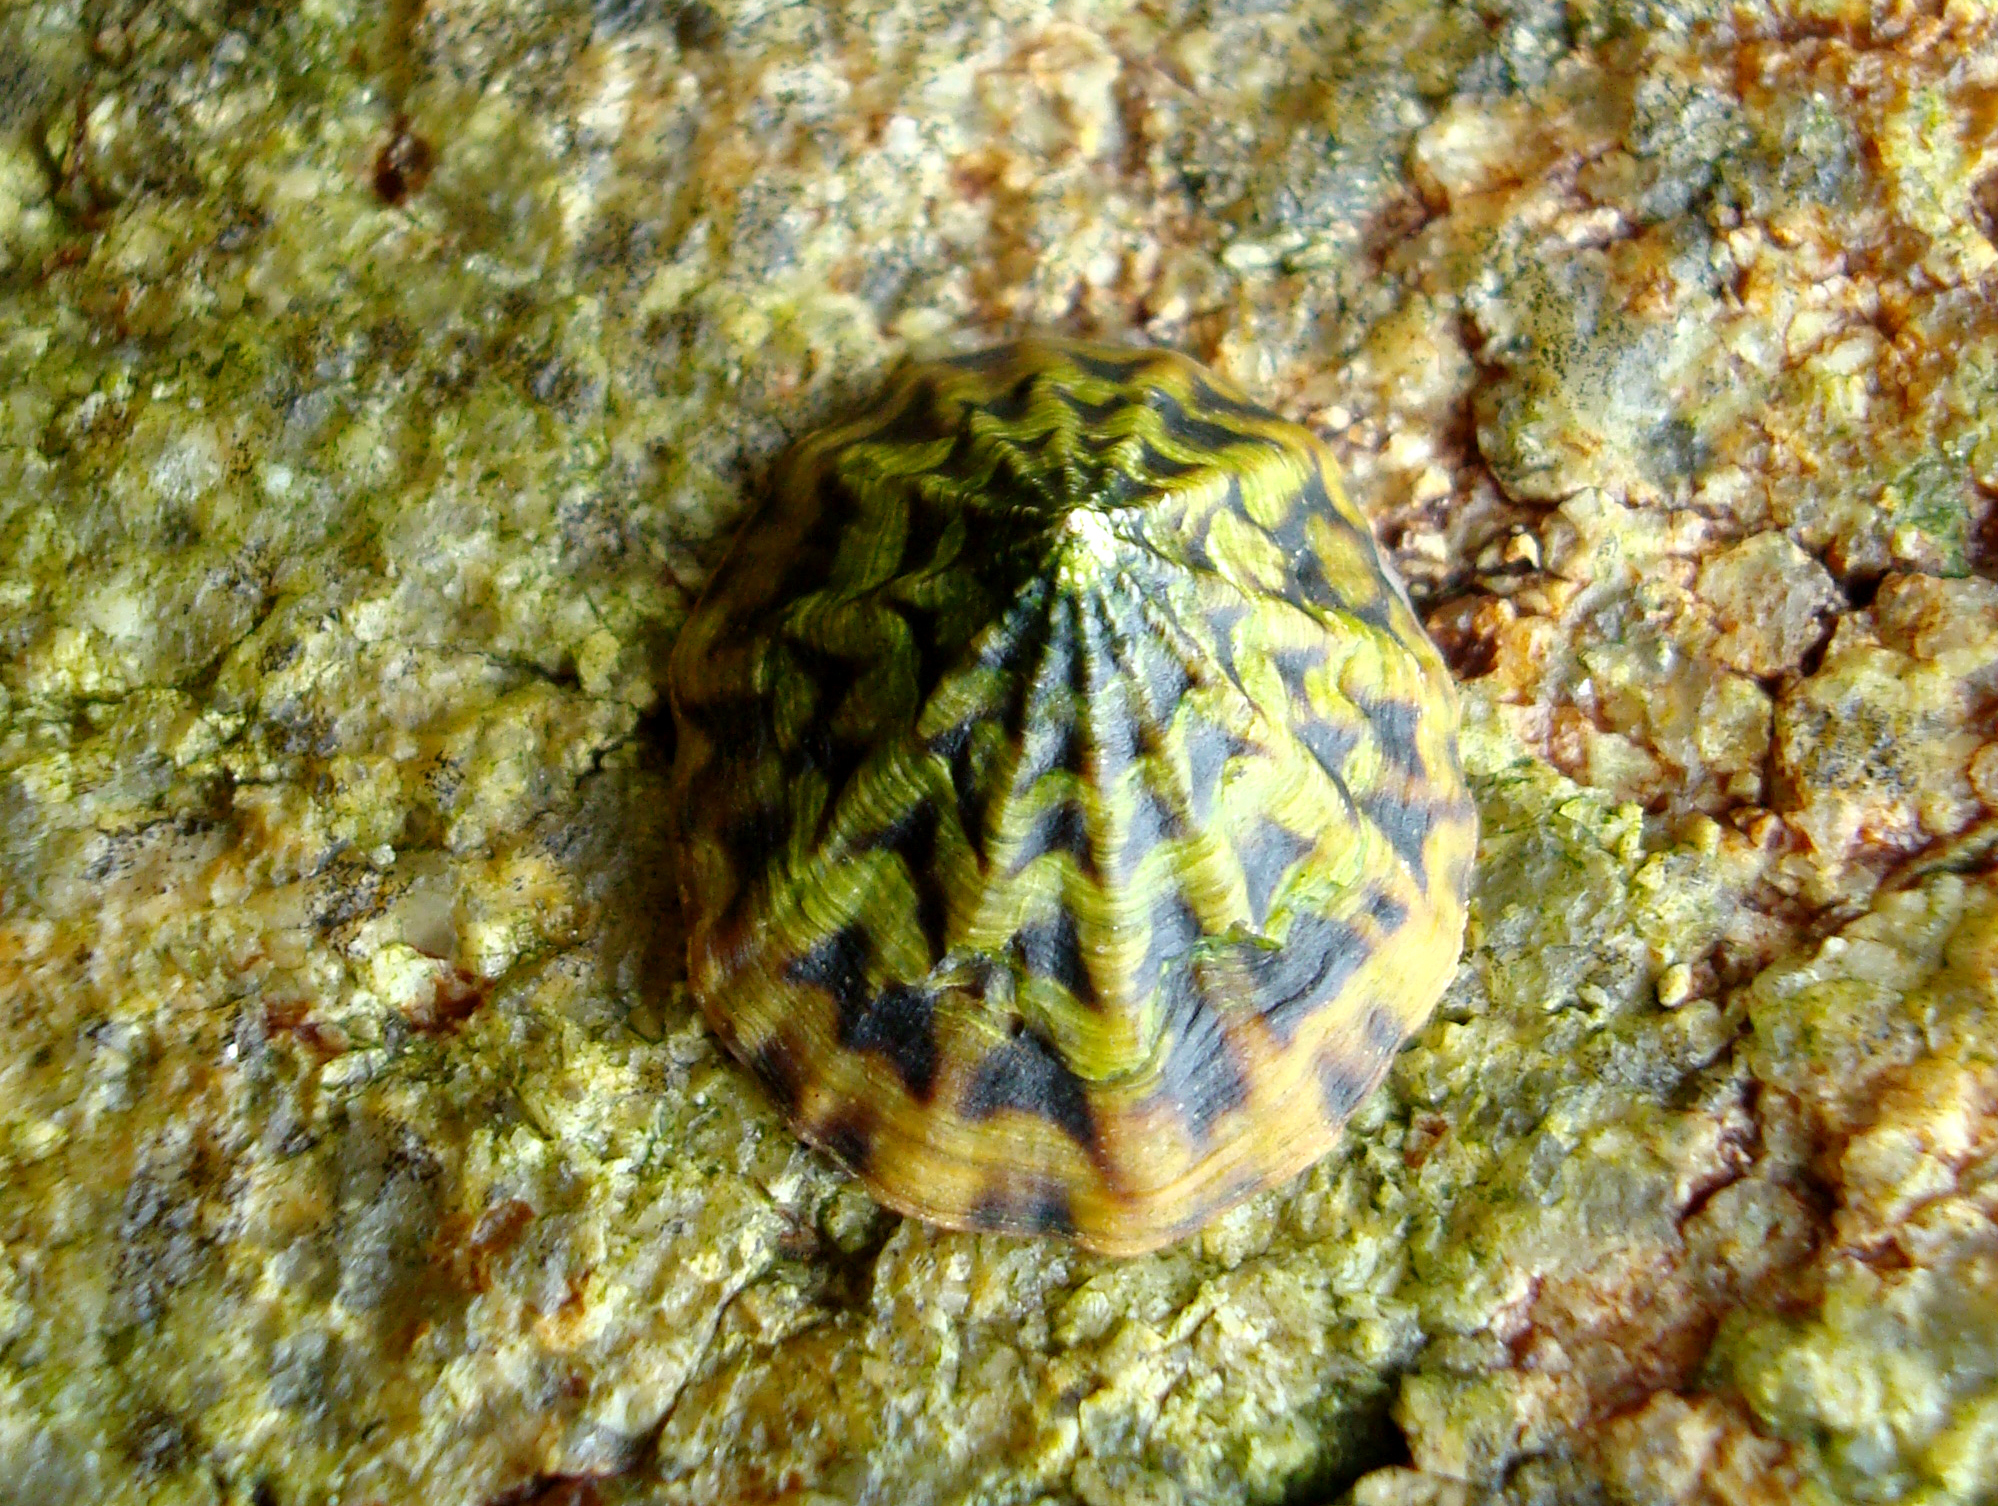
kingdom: Animalia
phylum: Mollusca
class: Gastropoda
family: Lottiidae
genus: Scurria
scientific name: Scurria zebrina
